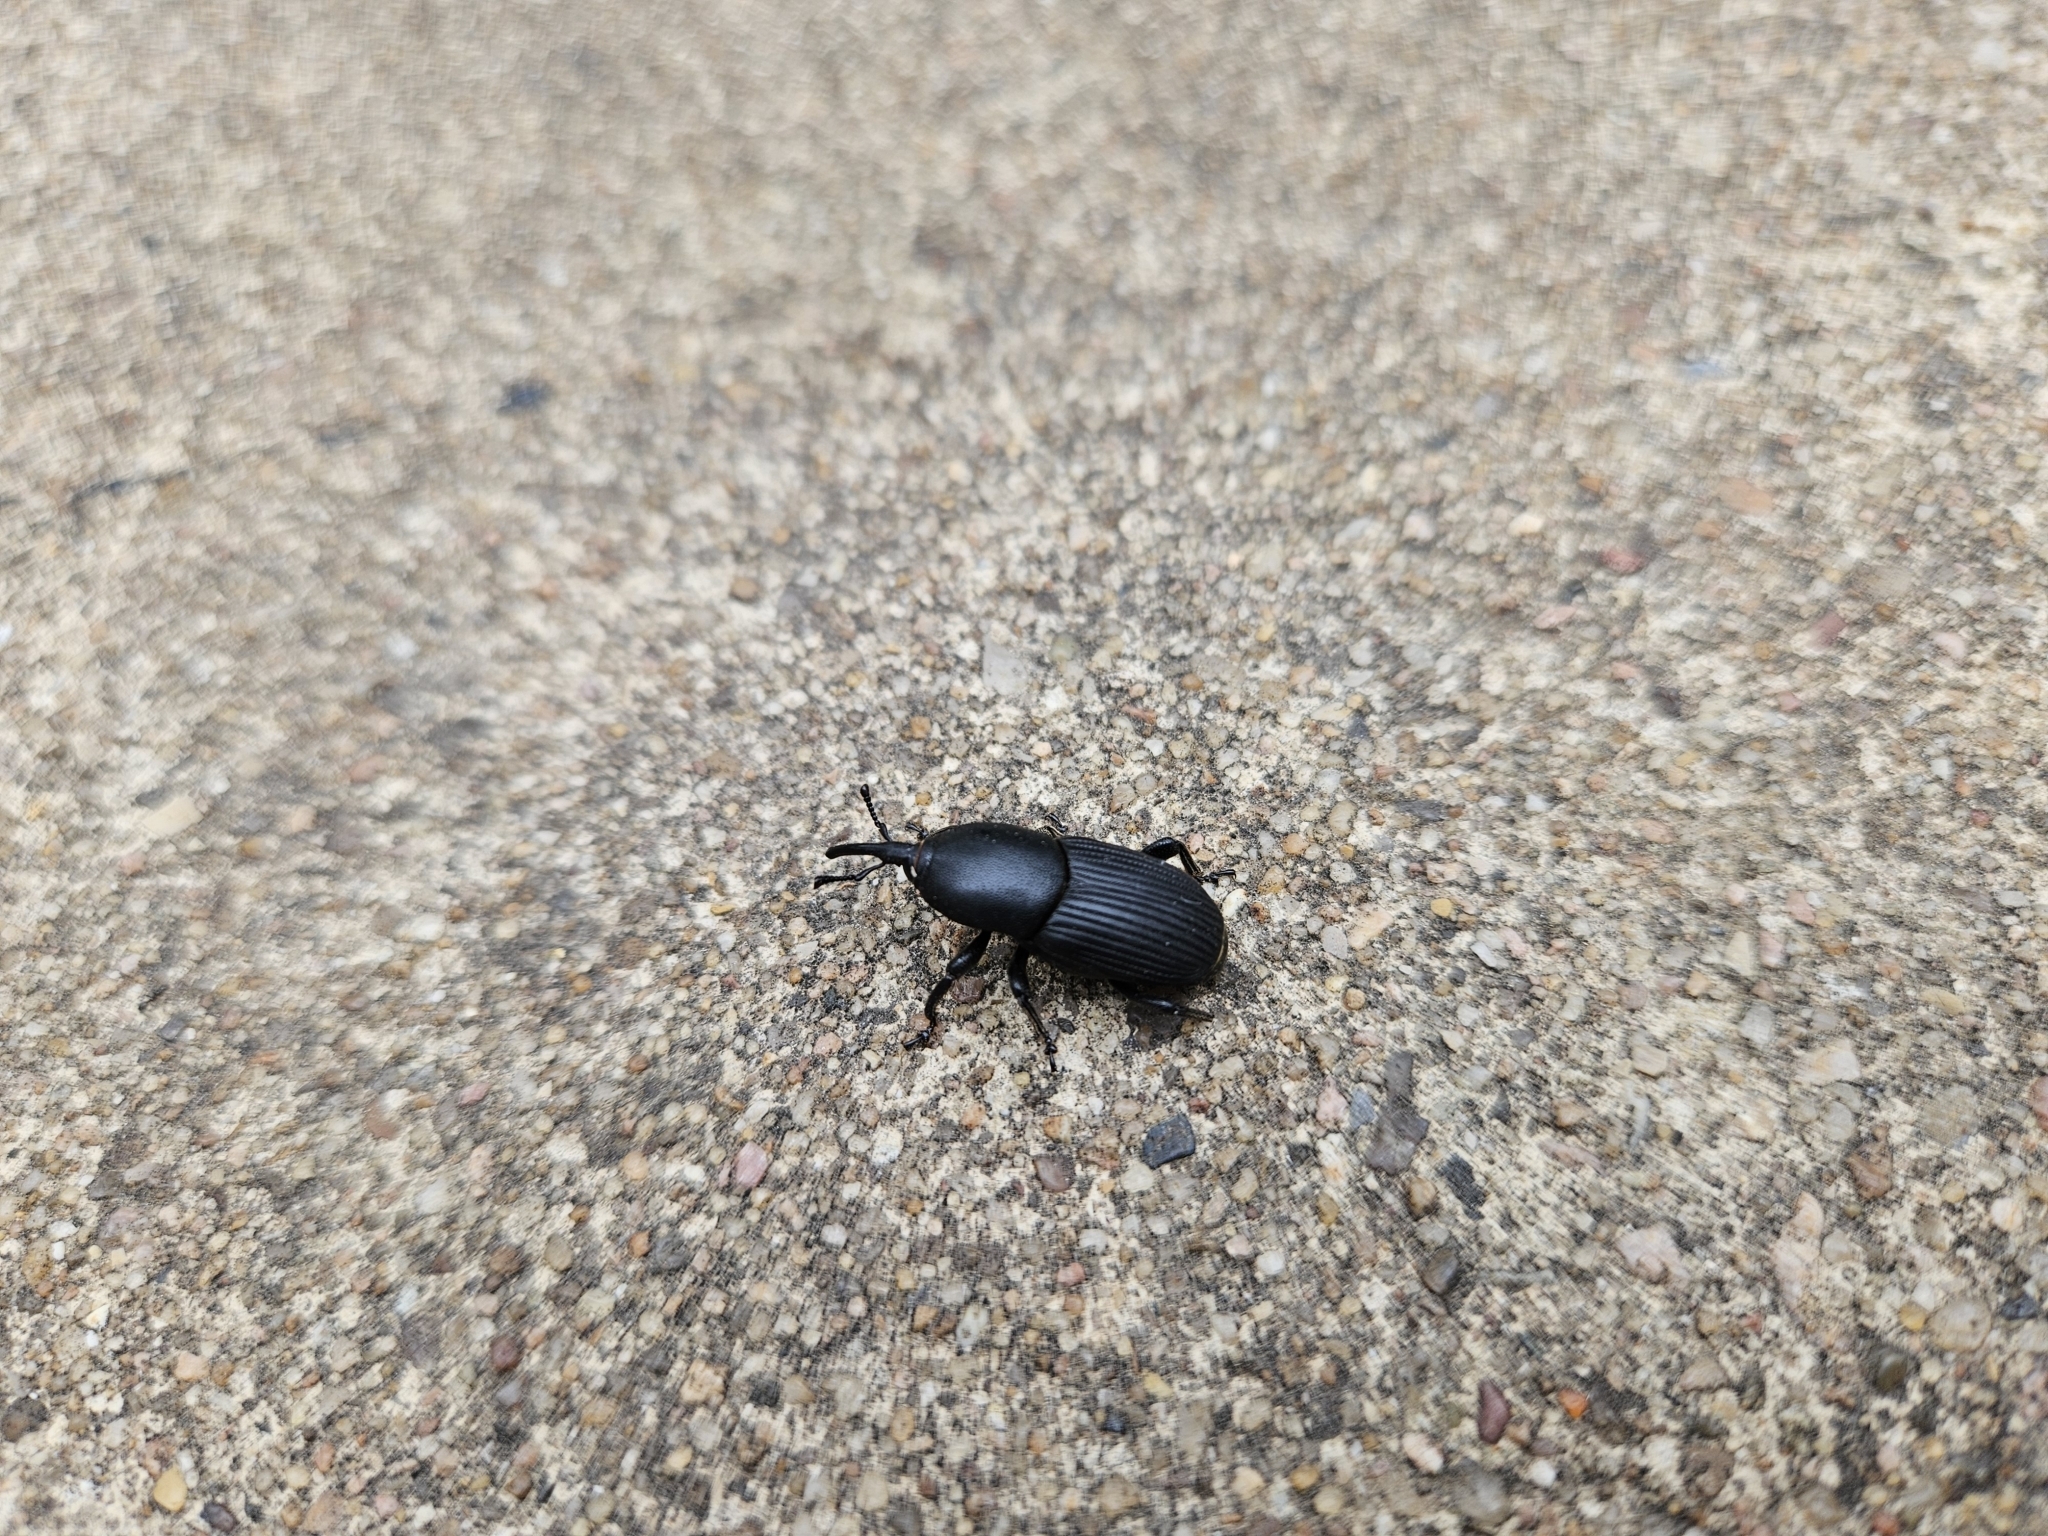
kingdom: Animalia
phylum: Arthropoda
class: Insecta
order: Coleoptera
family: Dryophthoridae
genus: Scyphophorus
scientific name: Scyphophorus acupunctatus
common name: Weevil
